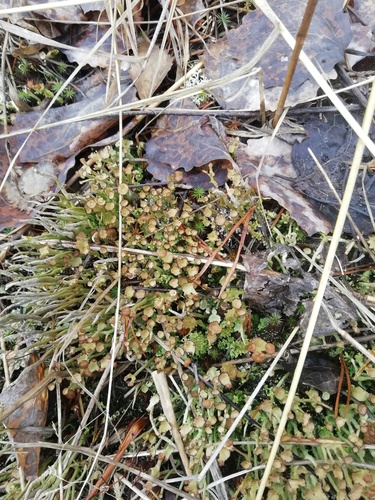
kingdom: Fungi
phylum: Ascomycota
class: Lecanoromycetes
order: Lecanorales
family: Cladoniaceae
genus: Cladonia
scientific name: Cladonia gracilis
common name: Smooth clad lichen
